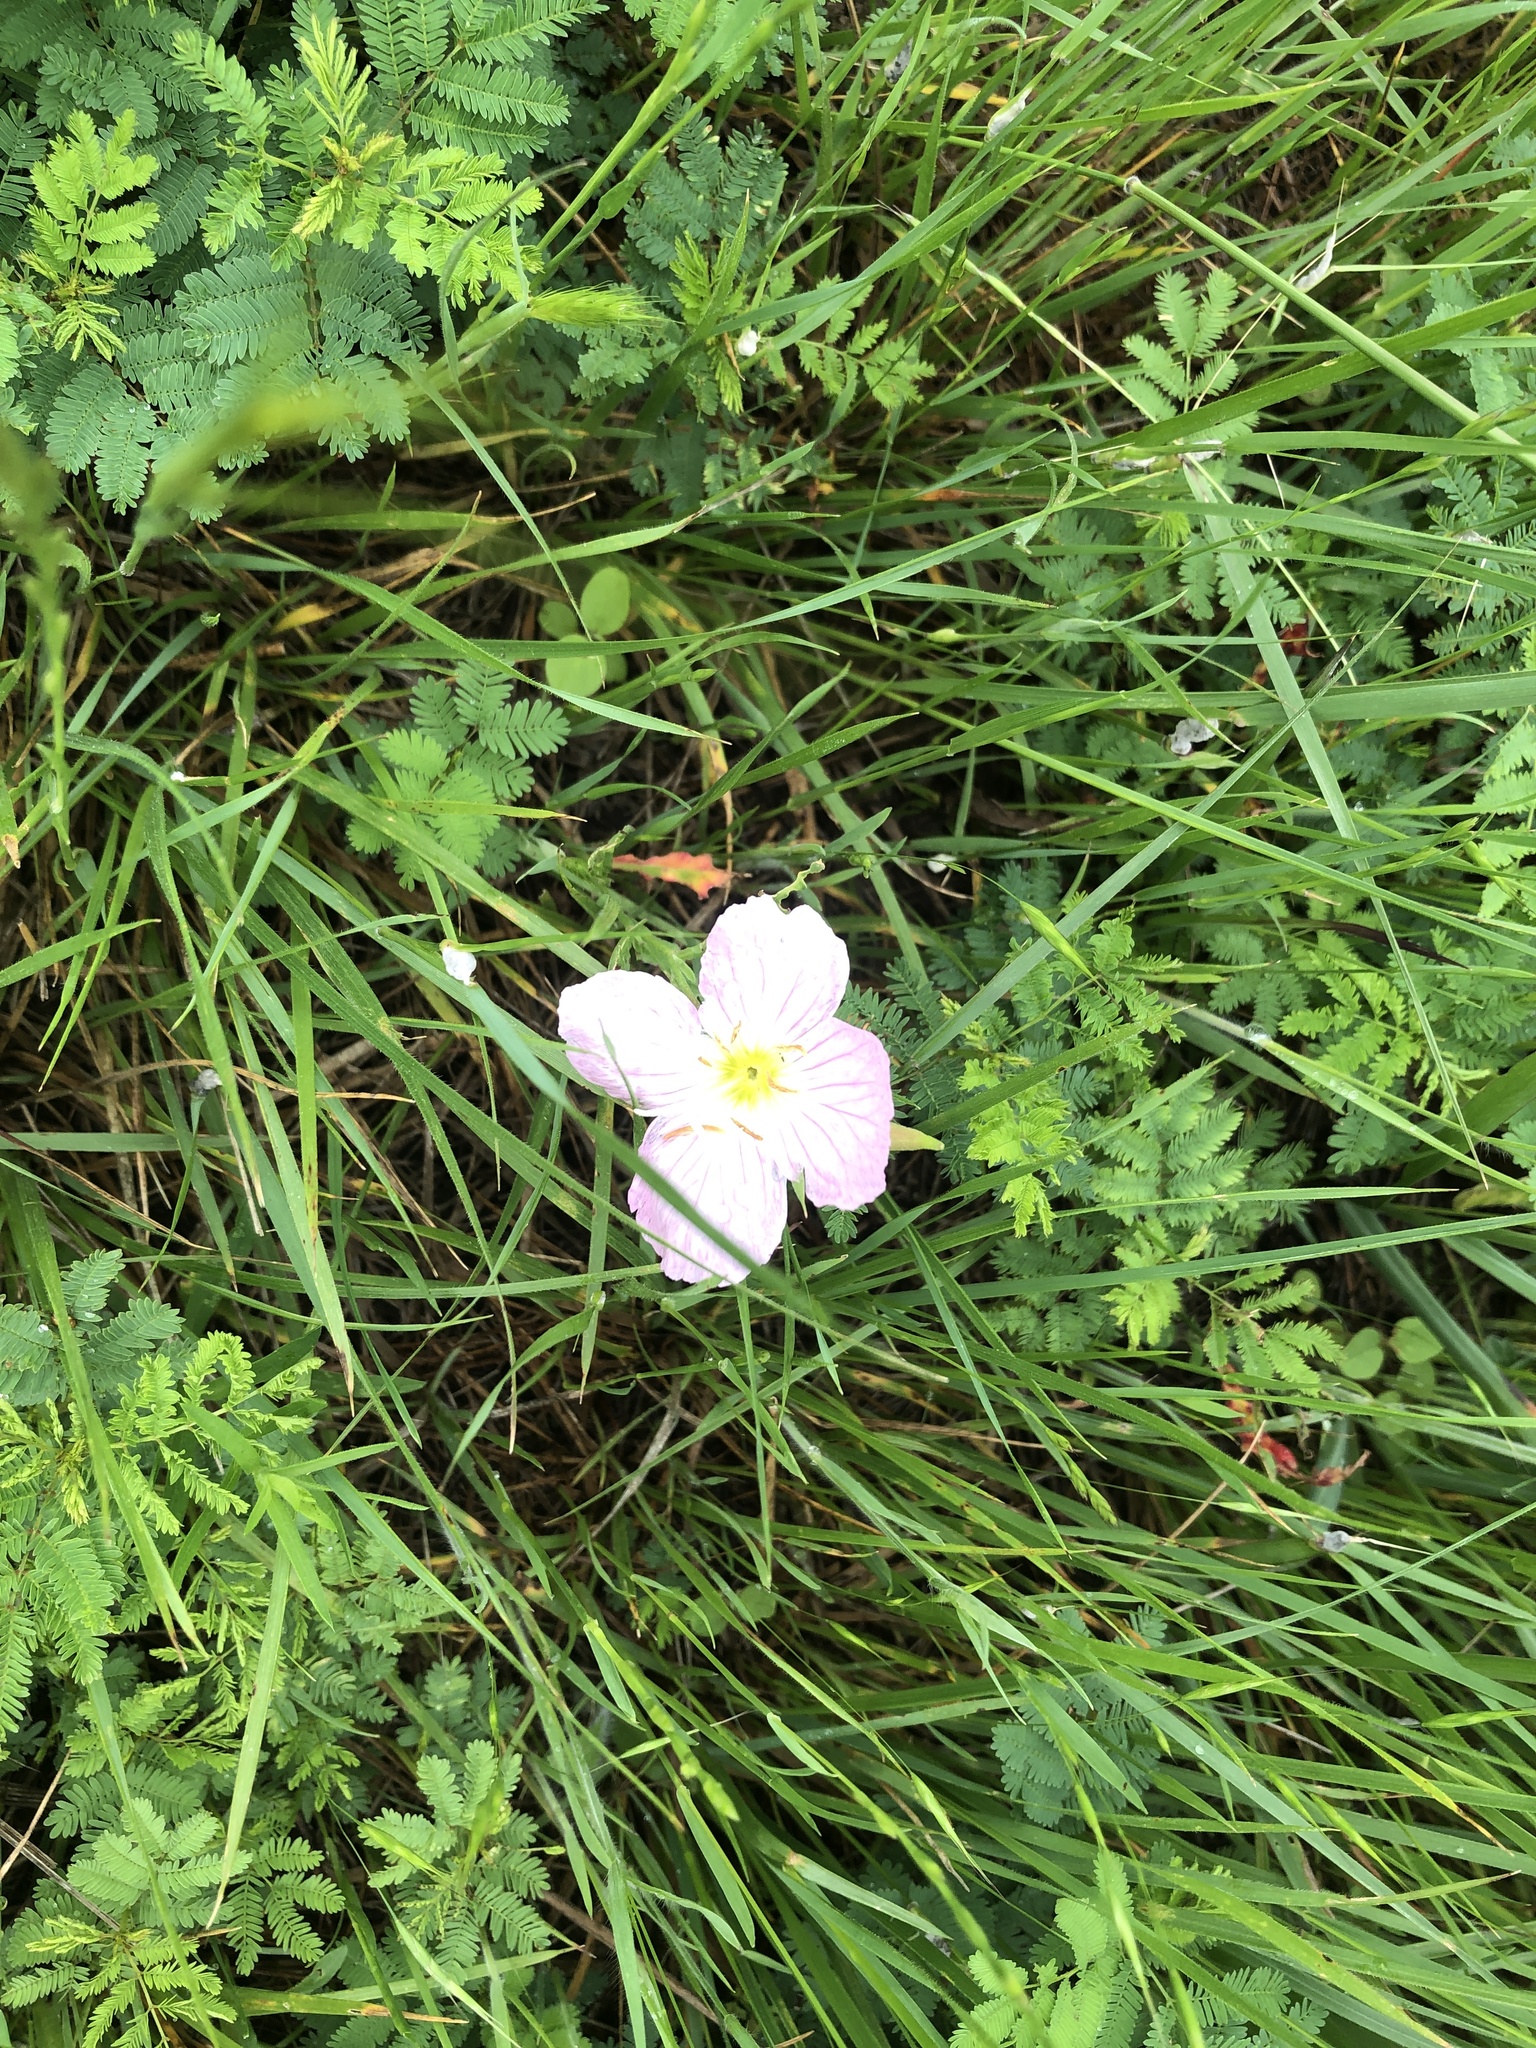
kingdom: Plantae
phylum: Tracheophyta
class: Magnoliopsida
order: Myrtales
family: Onagraceae
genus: Oenothera
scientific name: Oenothera speciosa
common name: White evening-primrose
